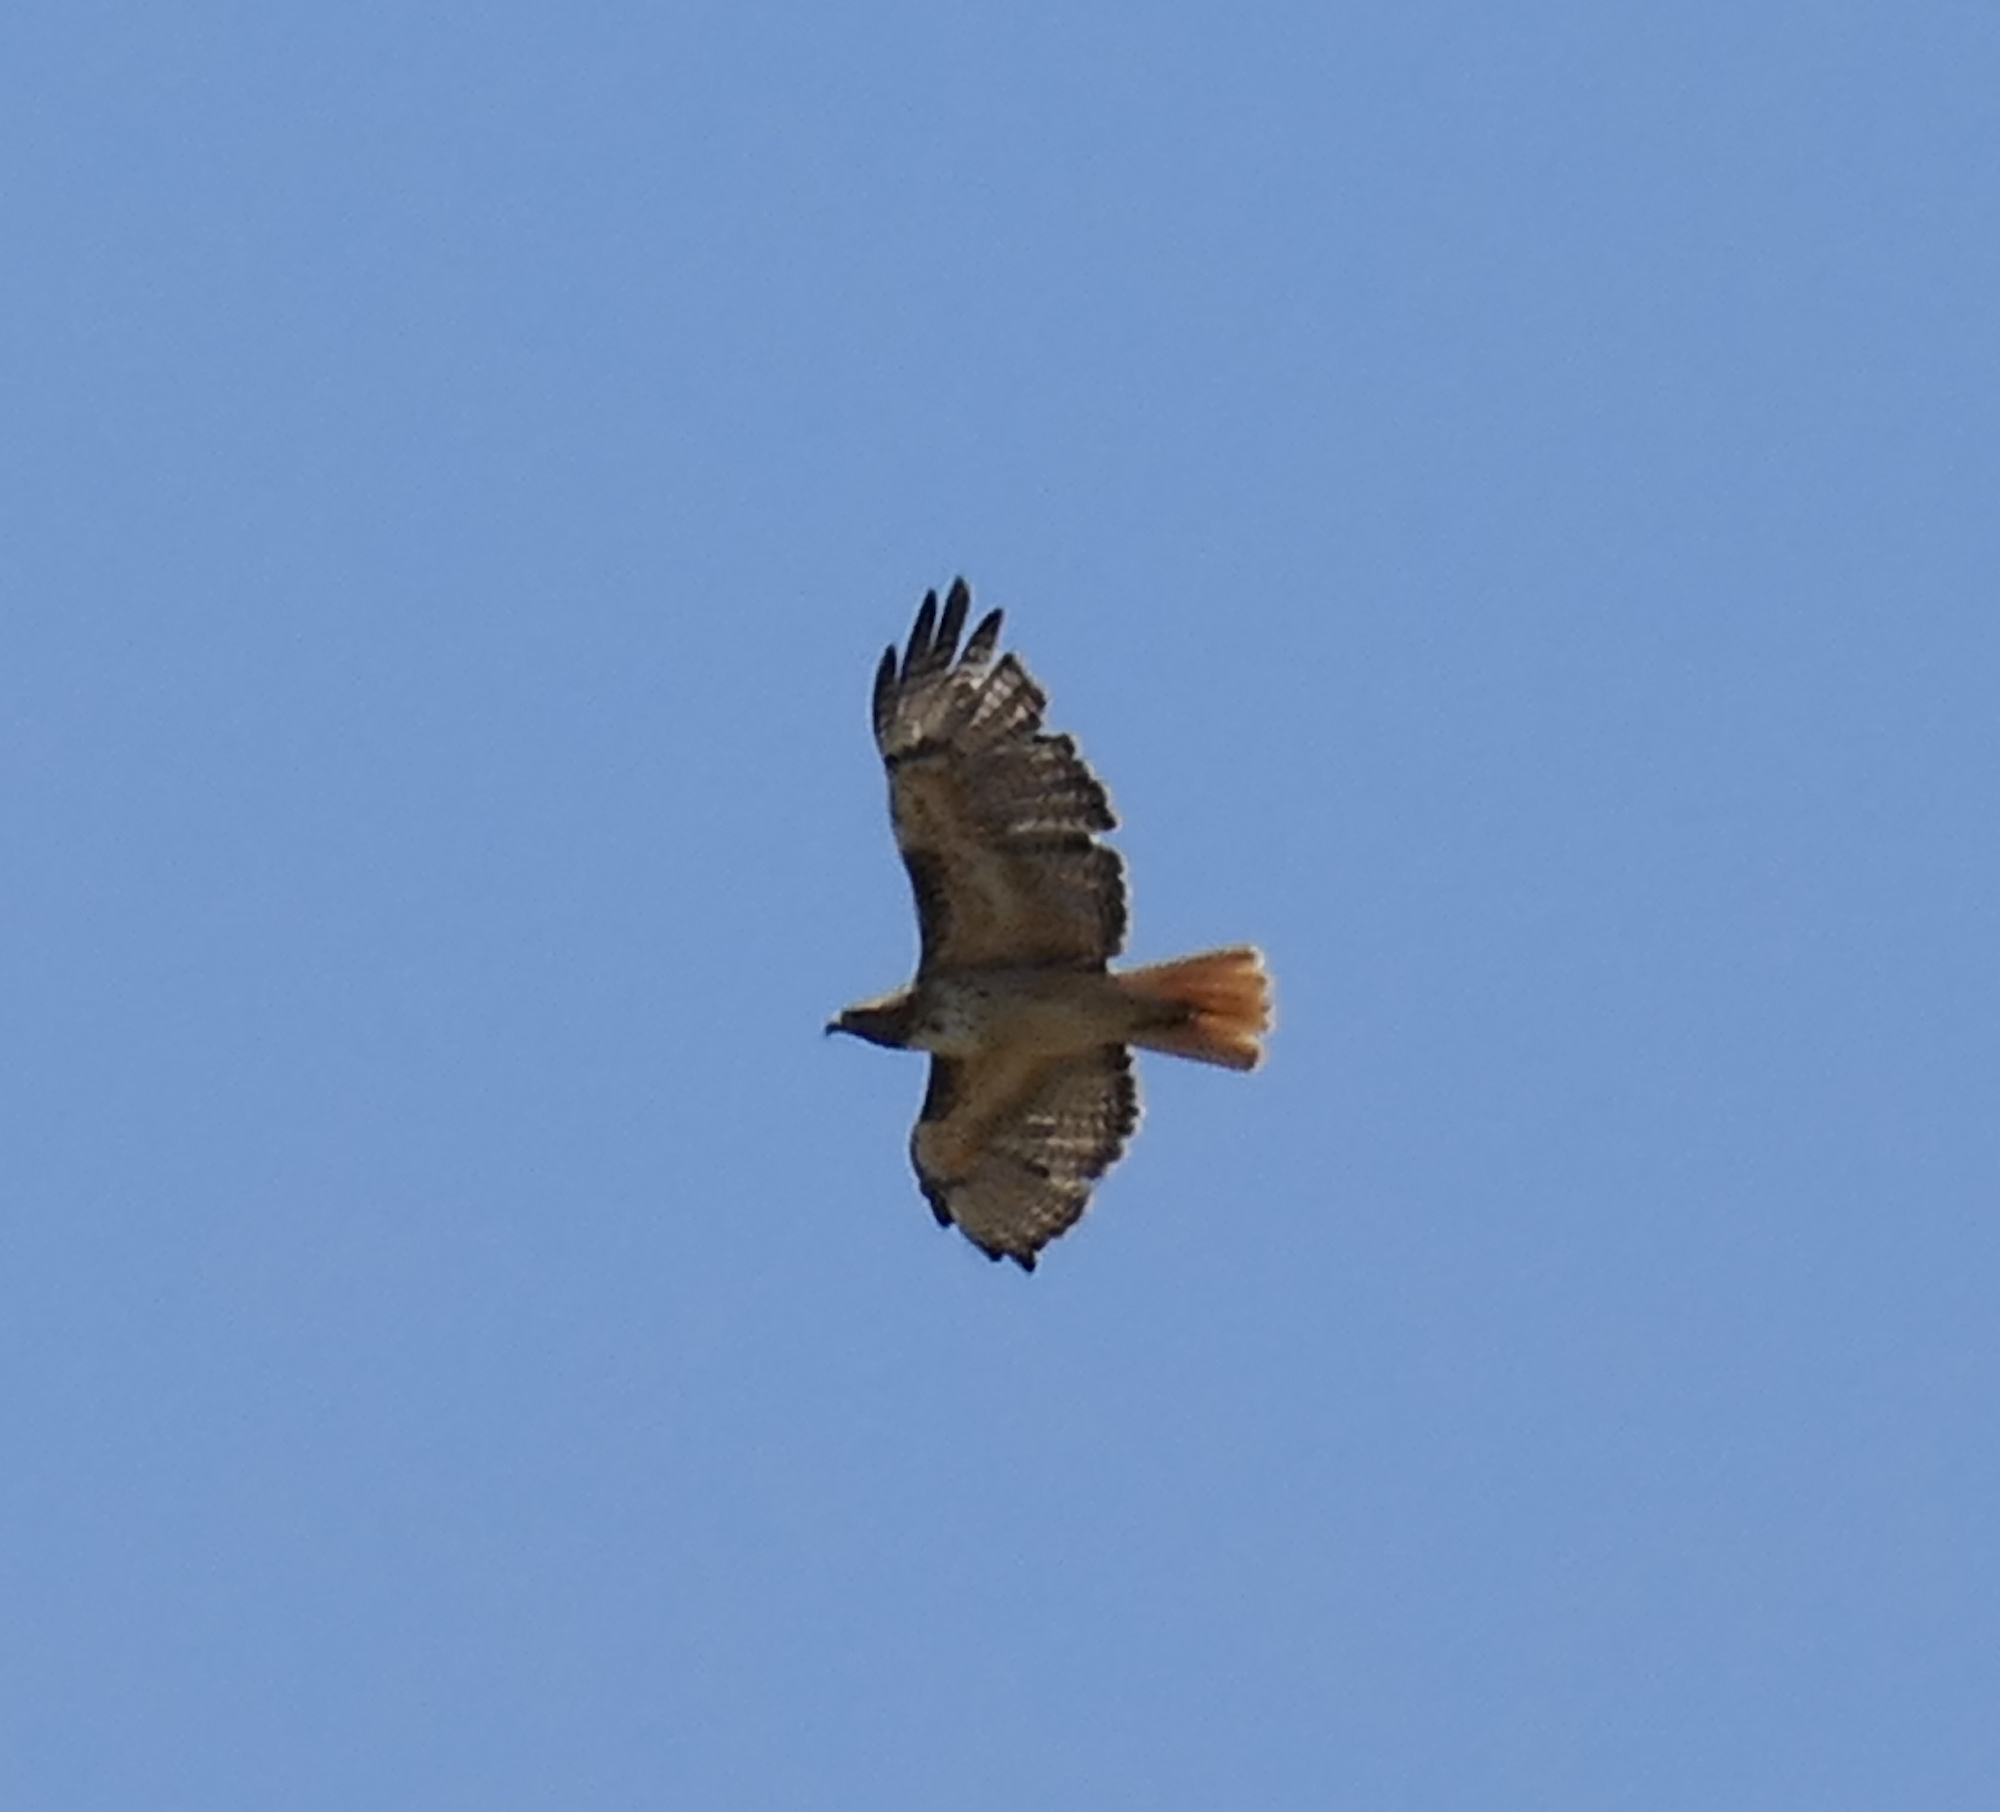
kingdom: Animalia
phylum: Chordata
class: Aves
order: Accipitriformes
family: Accipitridae
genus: Buteo
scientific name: Buteo jamaicensis
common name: Red-tailed hawk
